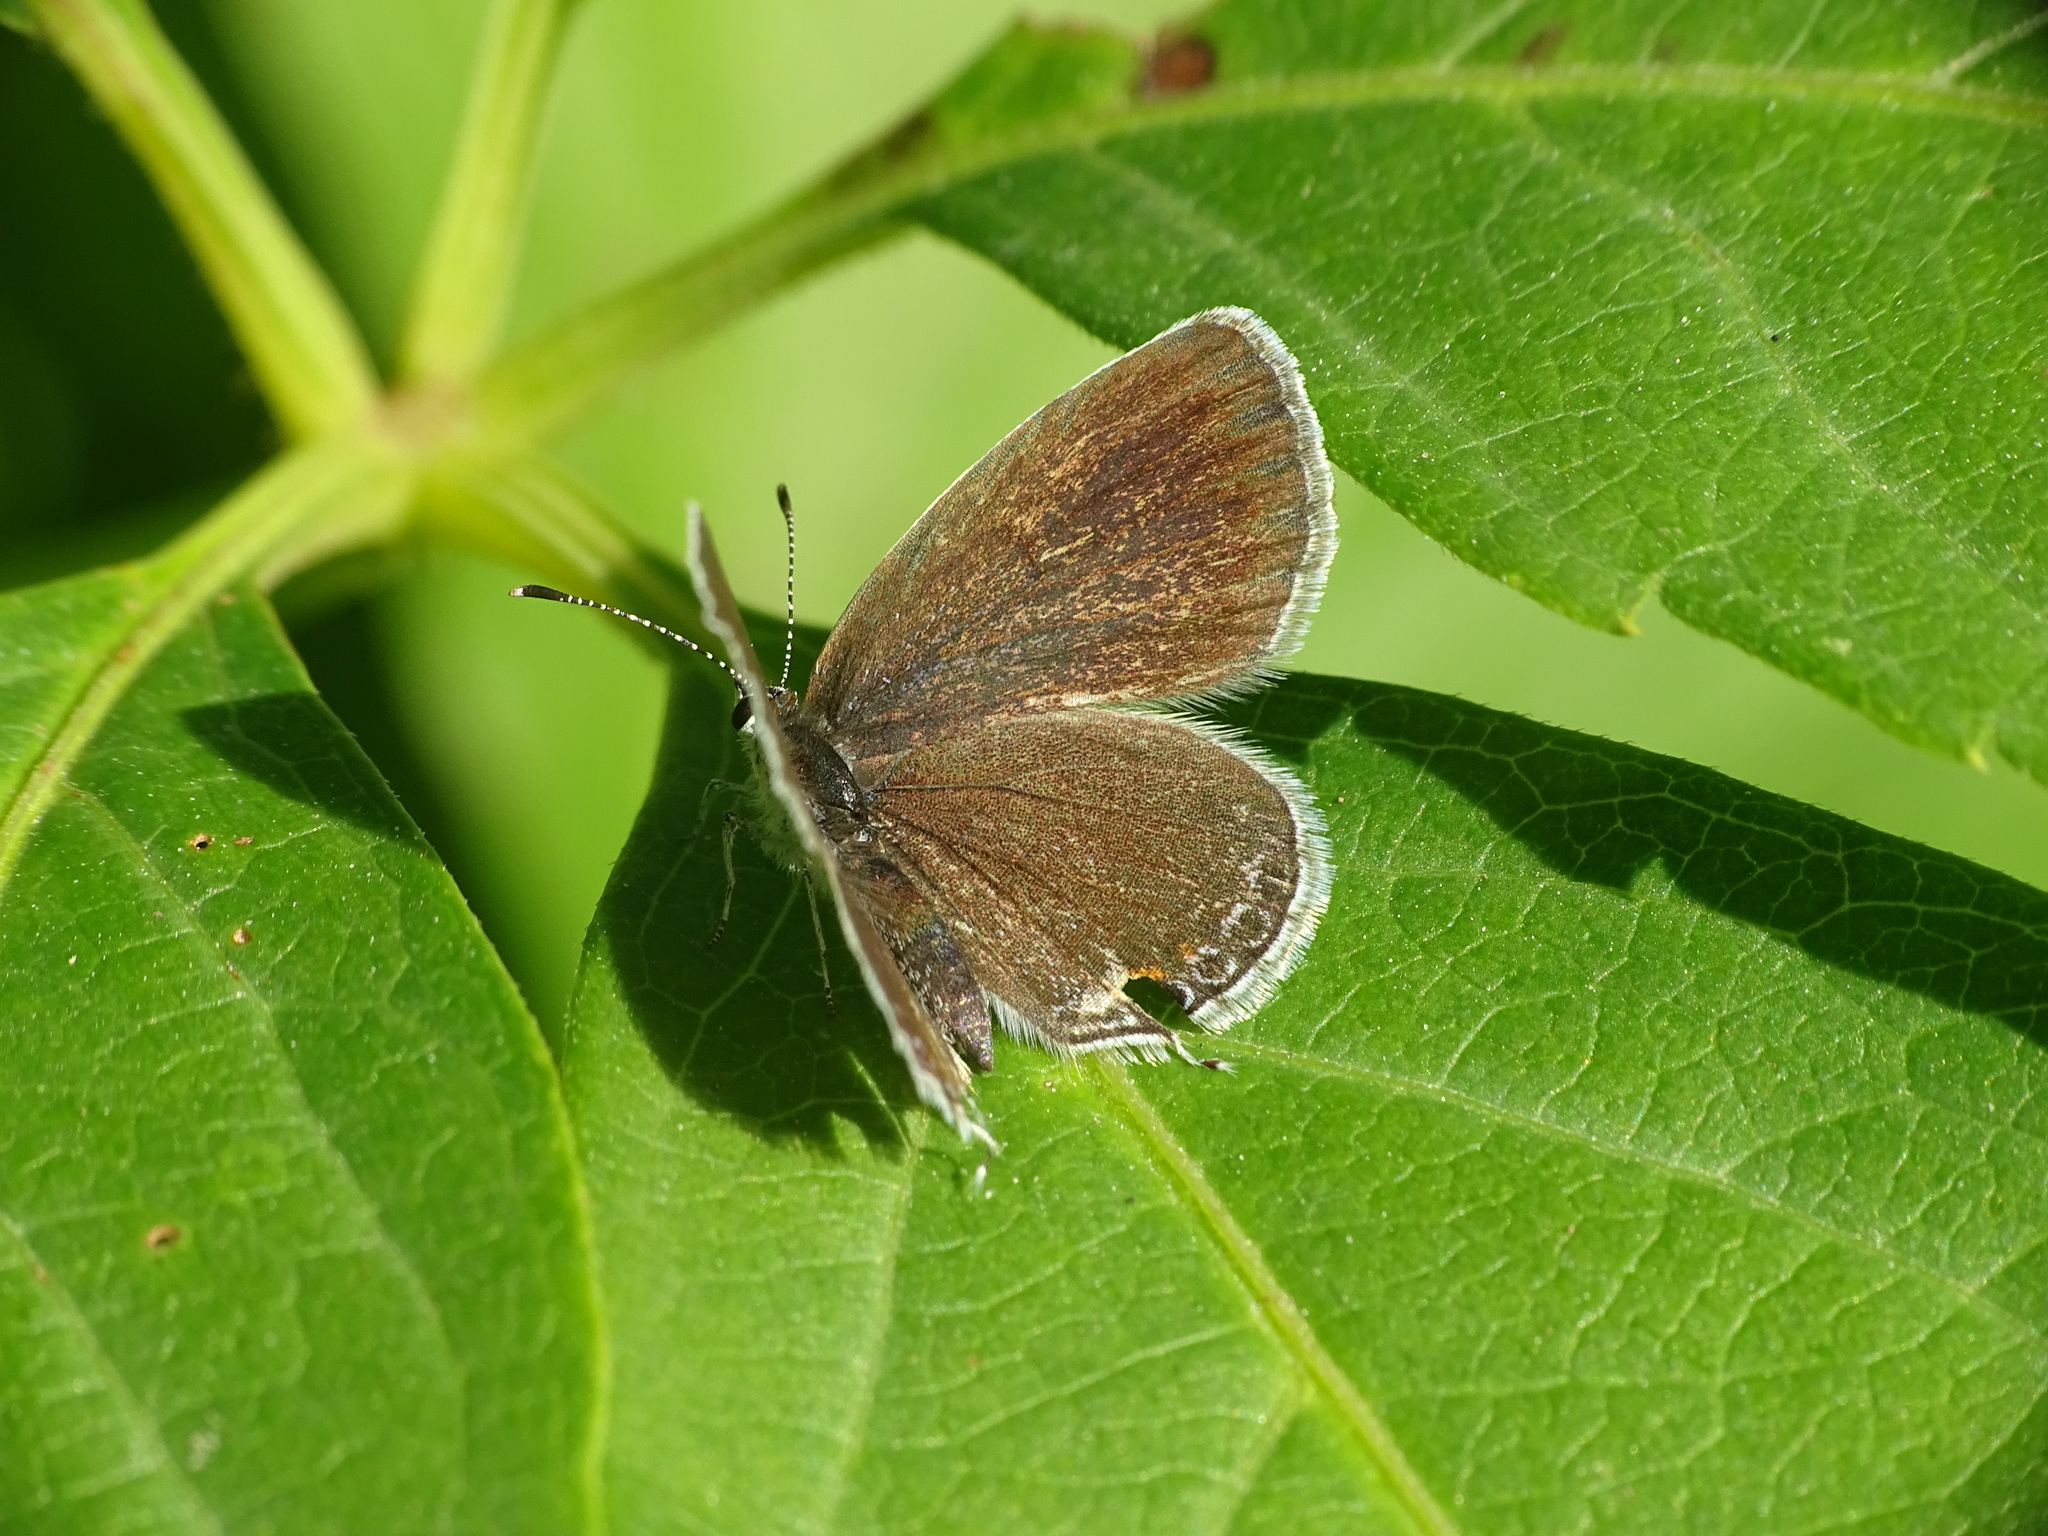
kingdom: Animalia
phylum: Arthropoda
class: Insecta
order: Lepidoptera
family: Lycaenidae
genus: Elkalyce
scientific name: Elkalyce comyntas
